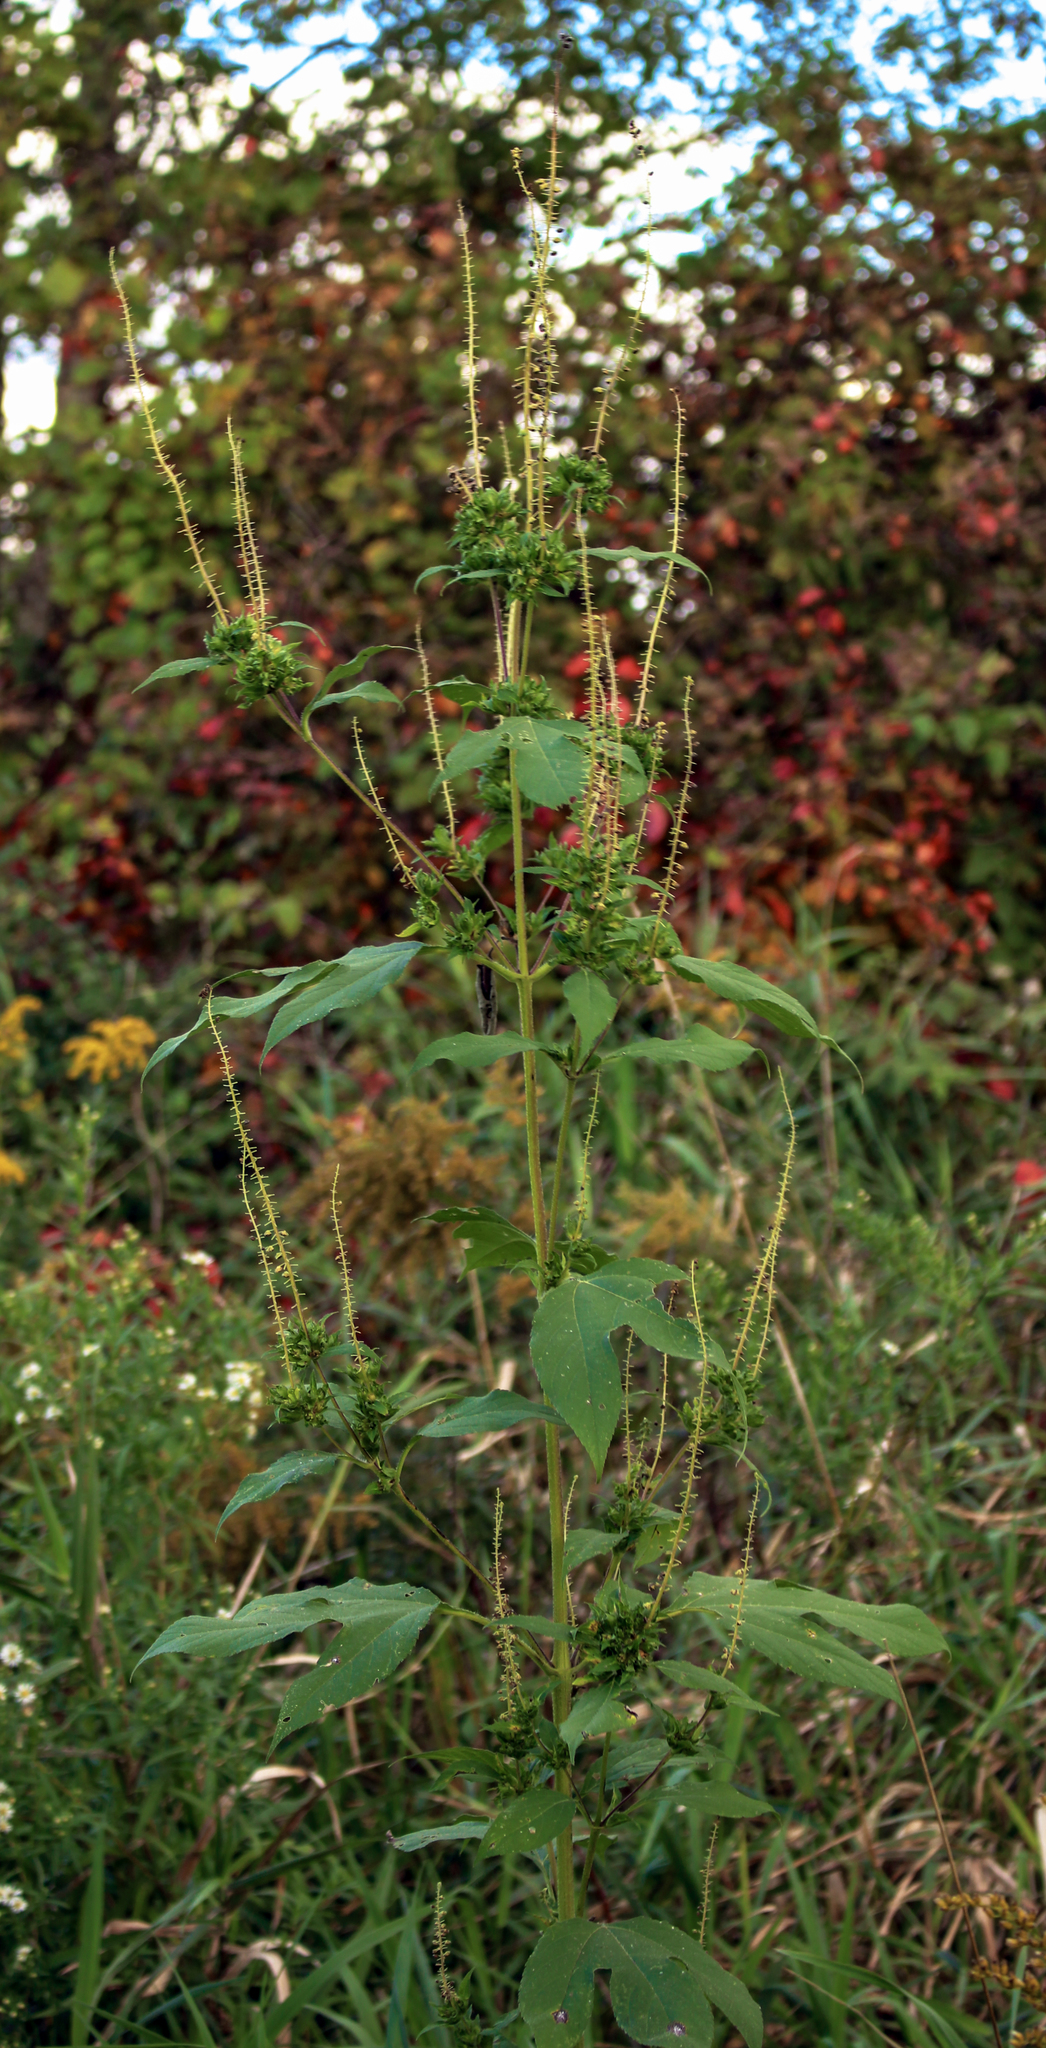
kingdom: Plantae
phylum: Tracheophyta
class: Magnoliopsida
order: Asterales
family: Asteraceae
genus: Ambrosia
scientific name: Ambrosia trifida
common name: Giant ragweed
